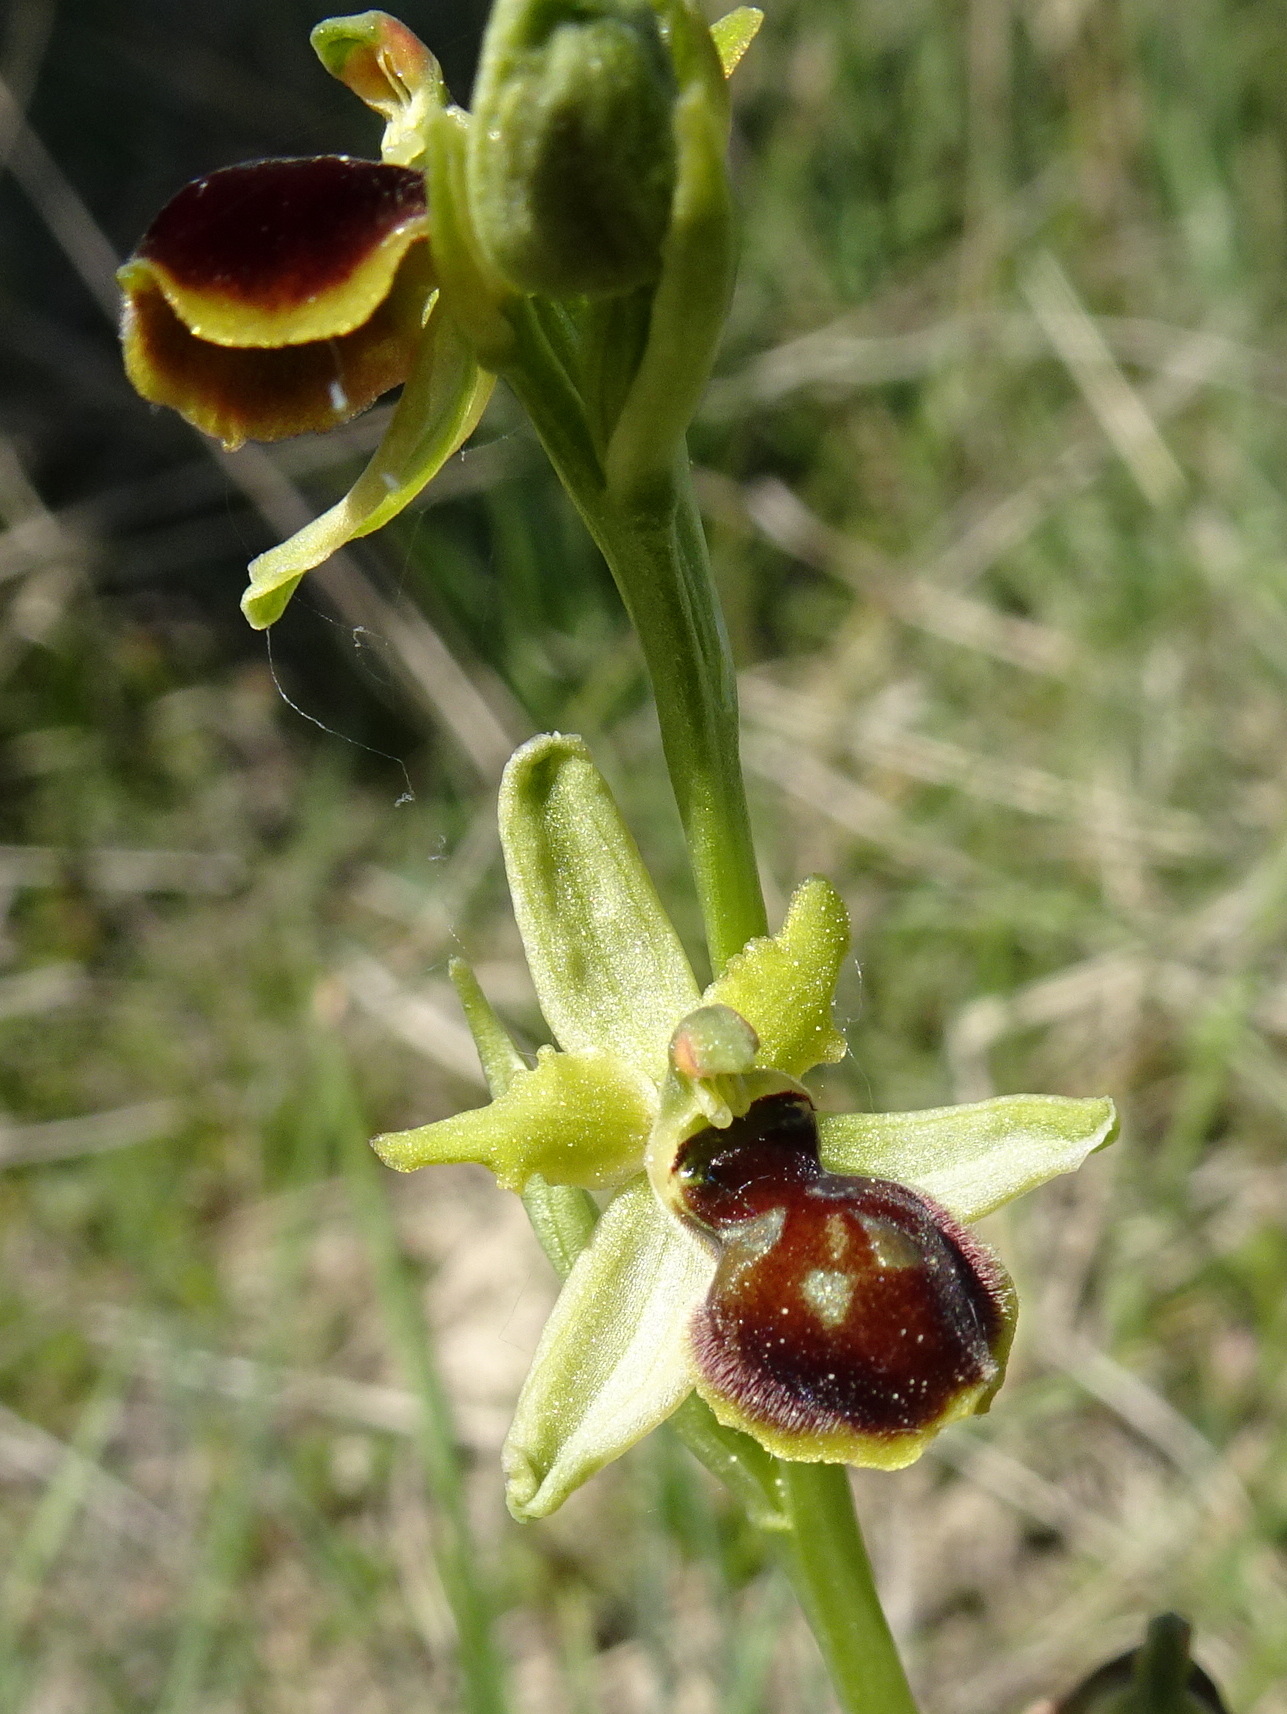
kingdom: Plantae
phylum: Tracheophyta
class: Liliopsida
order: Asparagales
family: Orchidaceae
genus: Ophrys
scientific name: Ophrys sphegodes
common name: Early spider-orchid
